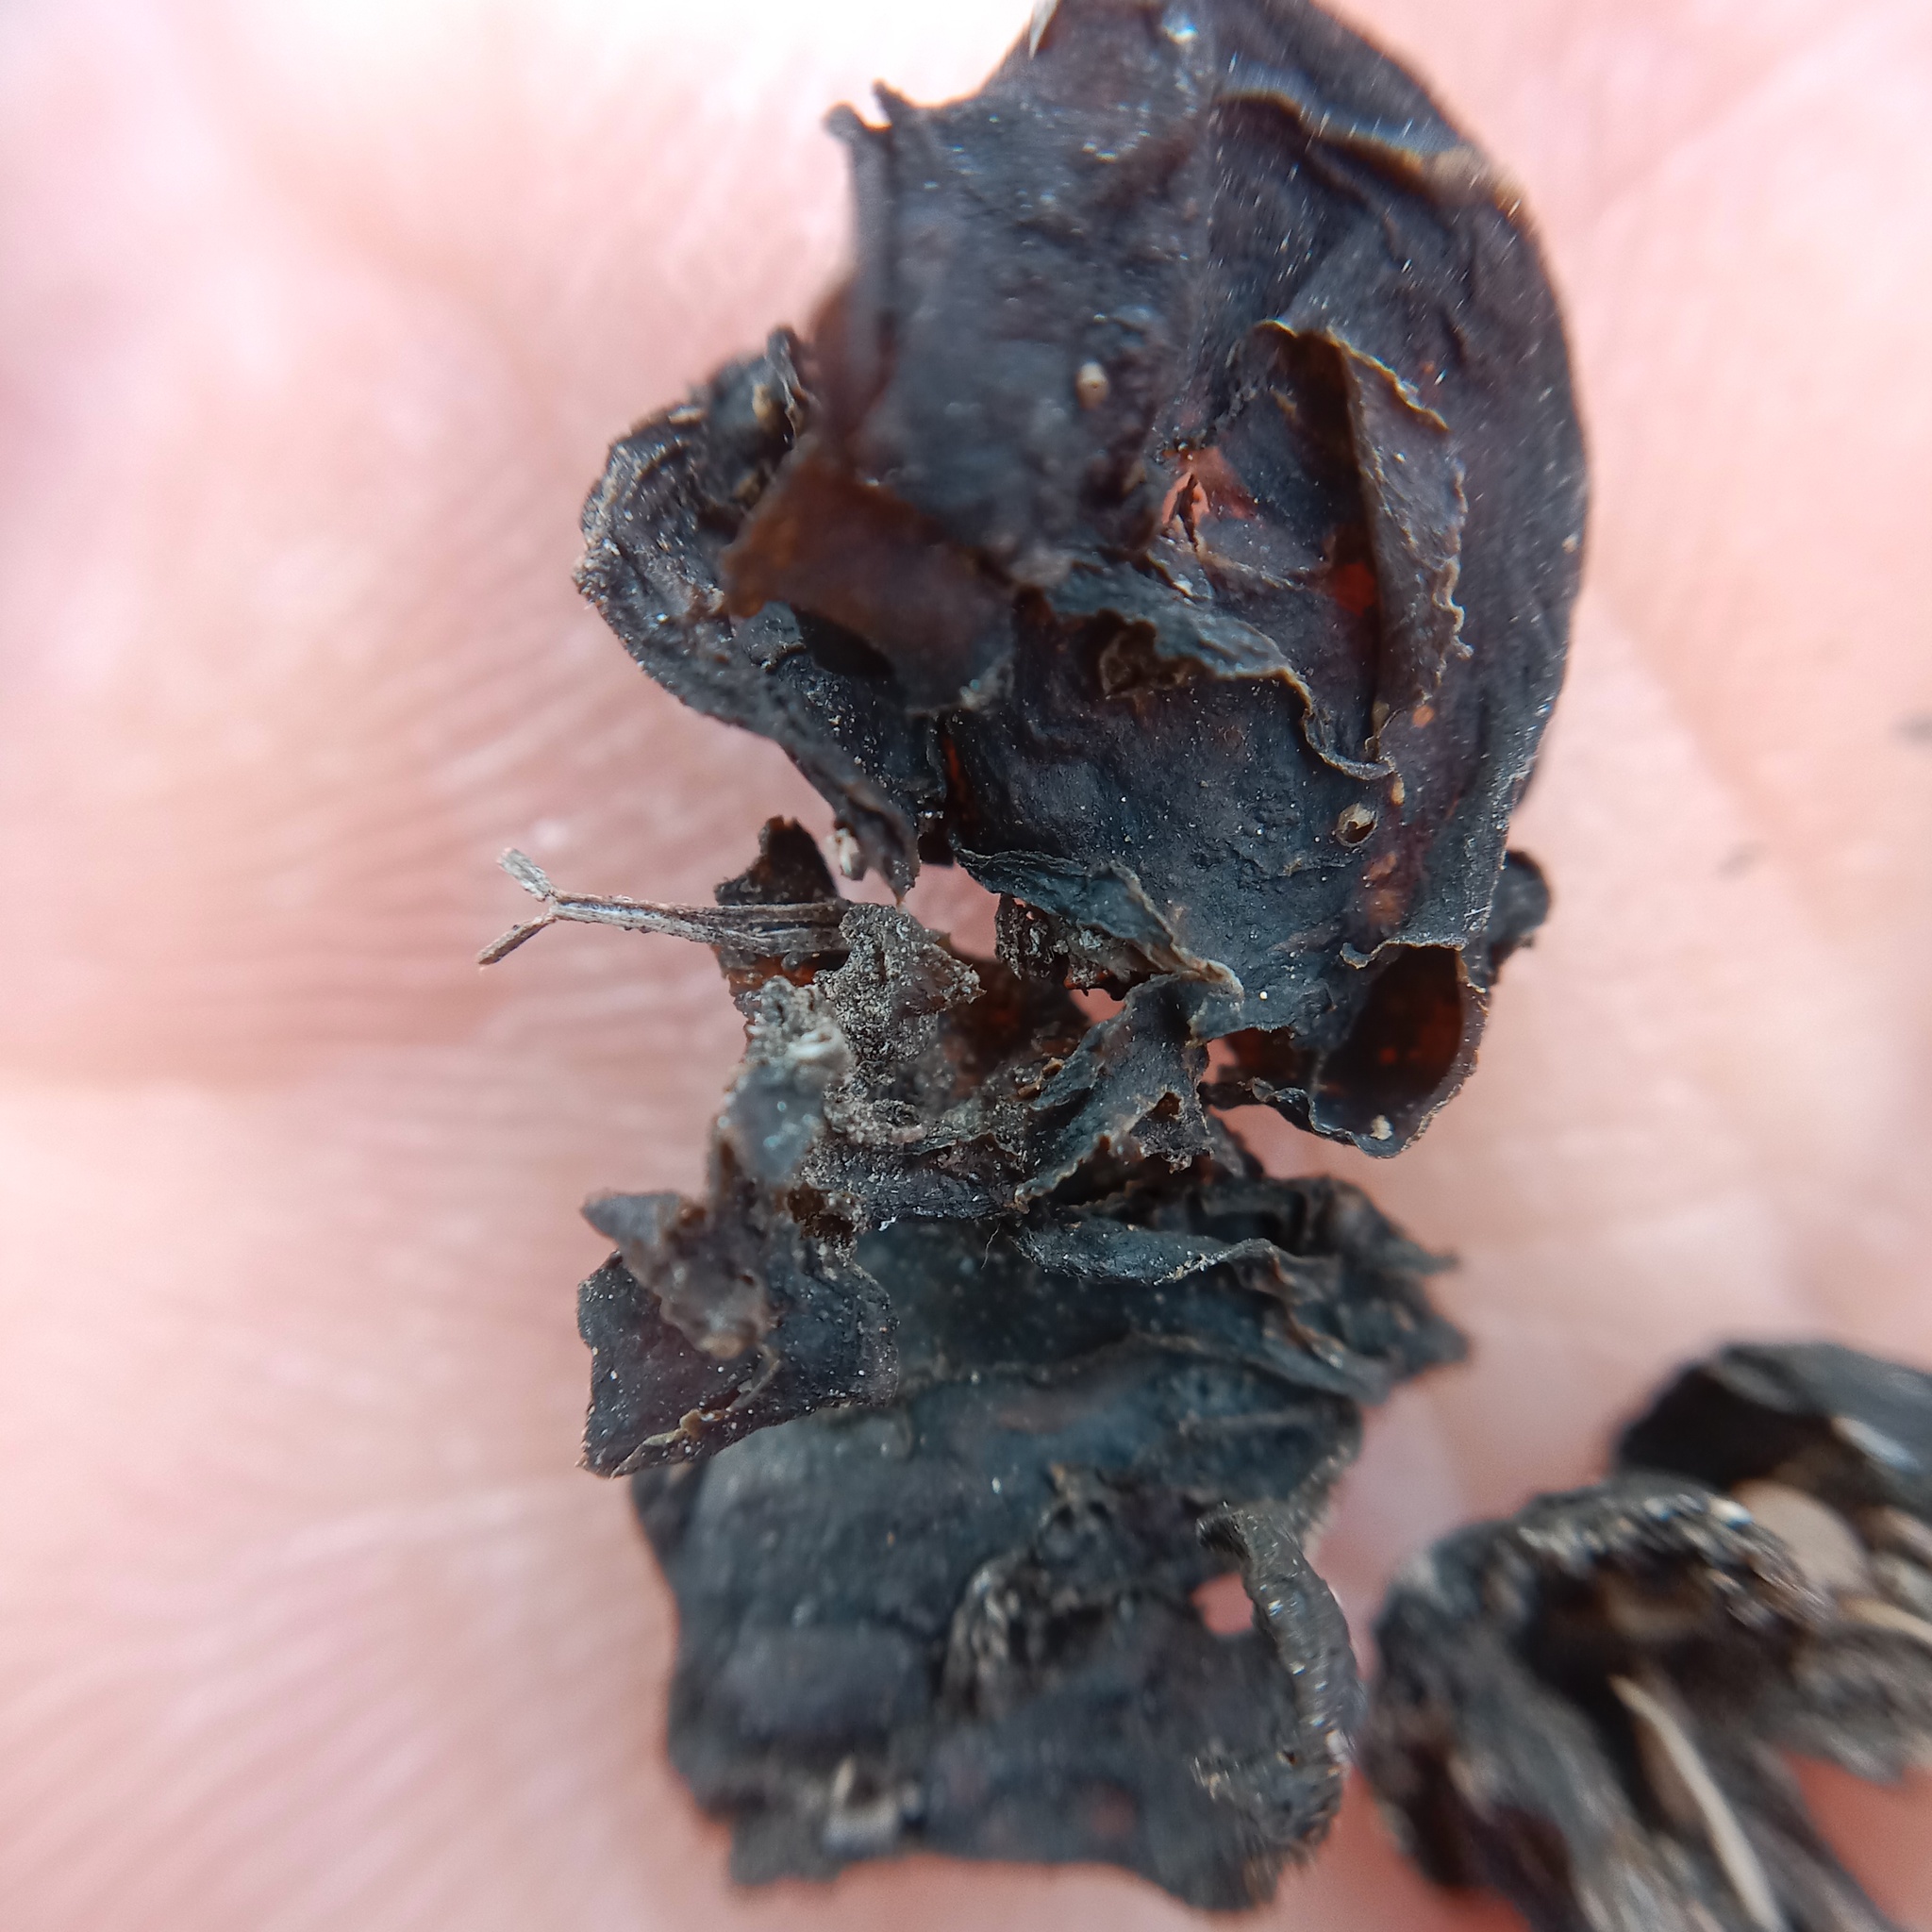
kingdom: Bacteria
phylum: Cyanobacteria
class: Cyanobacteriia
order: Cyanobacteriales
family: Nostocaceae
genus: Nostoc
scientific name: Nostoc commune
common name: Star jelly
